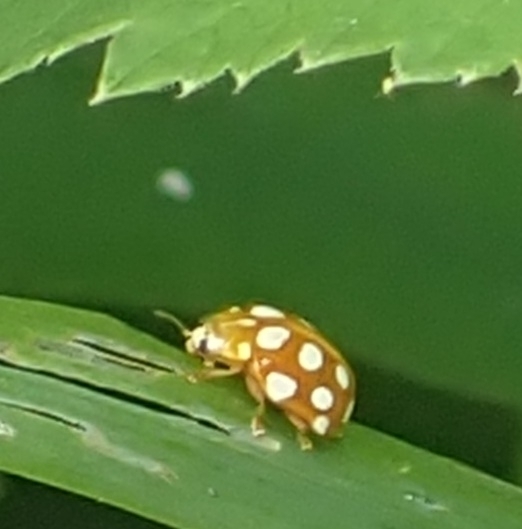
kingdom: Animalia
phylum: Arthropoda
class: Insecta
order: Coleoptera
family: Coccinellidae
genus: Halyzia
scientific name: Halyzia sedecimguttata
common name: Orange ladybird
